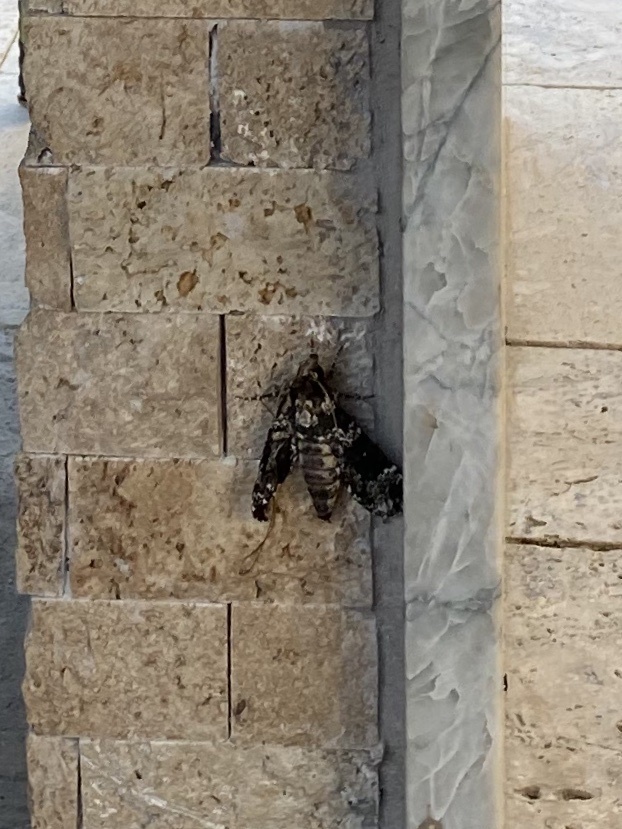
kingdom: Animalia
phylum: Arthropoda
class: Insecta
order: Lepidoptera
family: Sphingidae
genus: Manduca
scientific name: Manduca rustica
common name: Rustic sphinx
